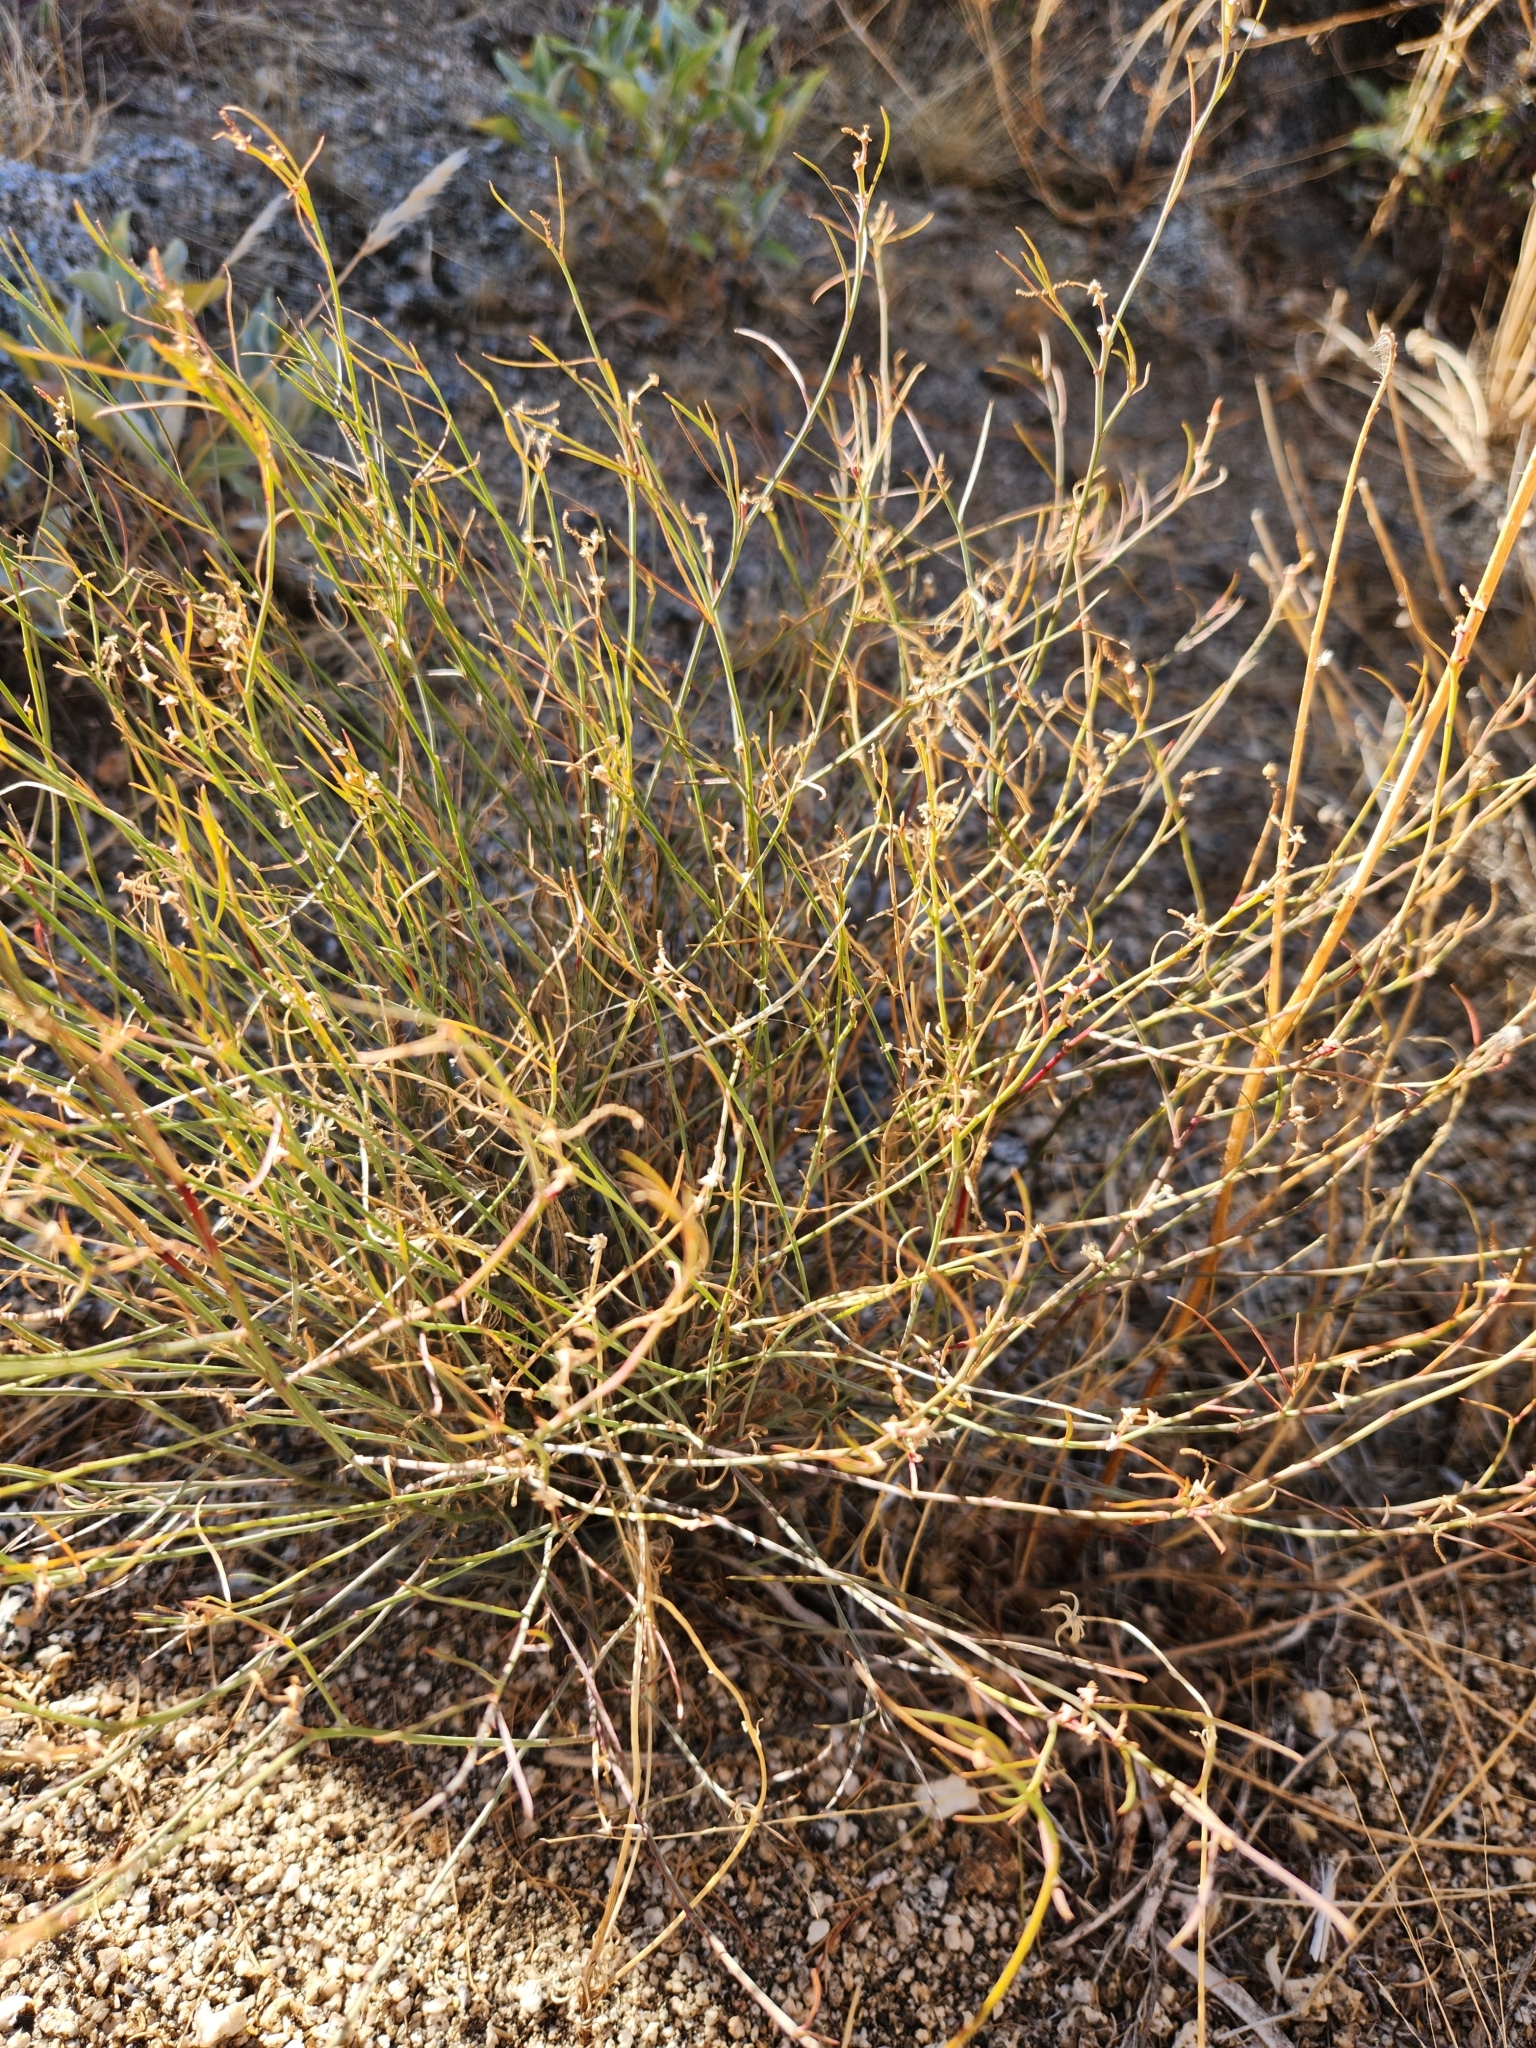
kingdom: Plantae
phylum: Tracheophyta
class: Magnoliopsida
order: Malpighiales
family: Euphorbiaceae
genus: Stillingia
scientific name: Stillingia linearifolia
